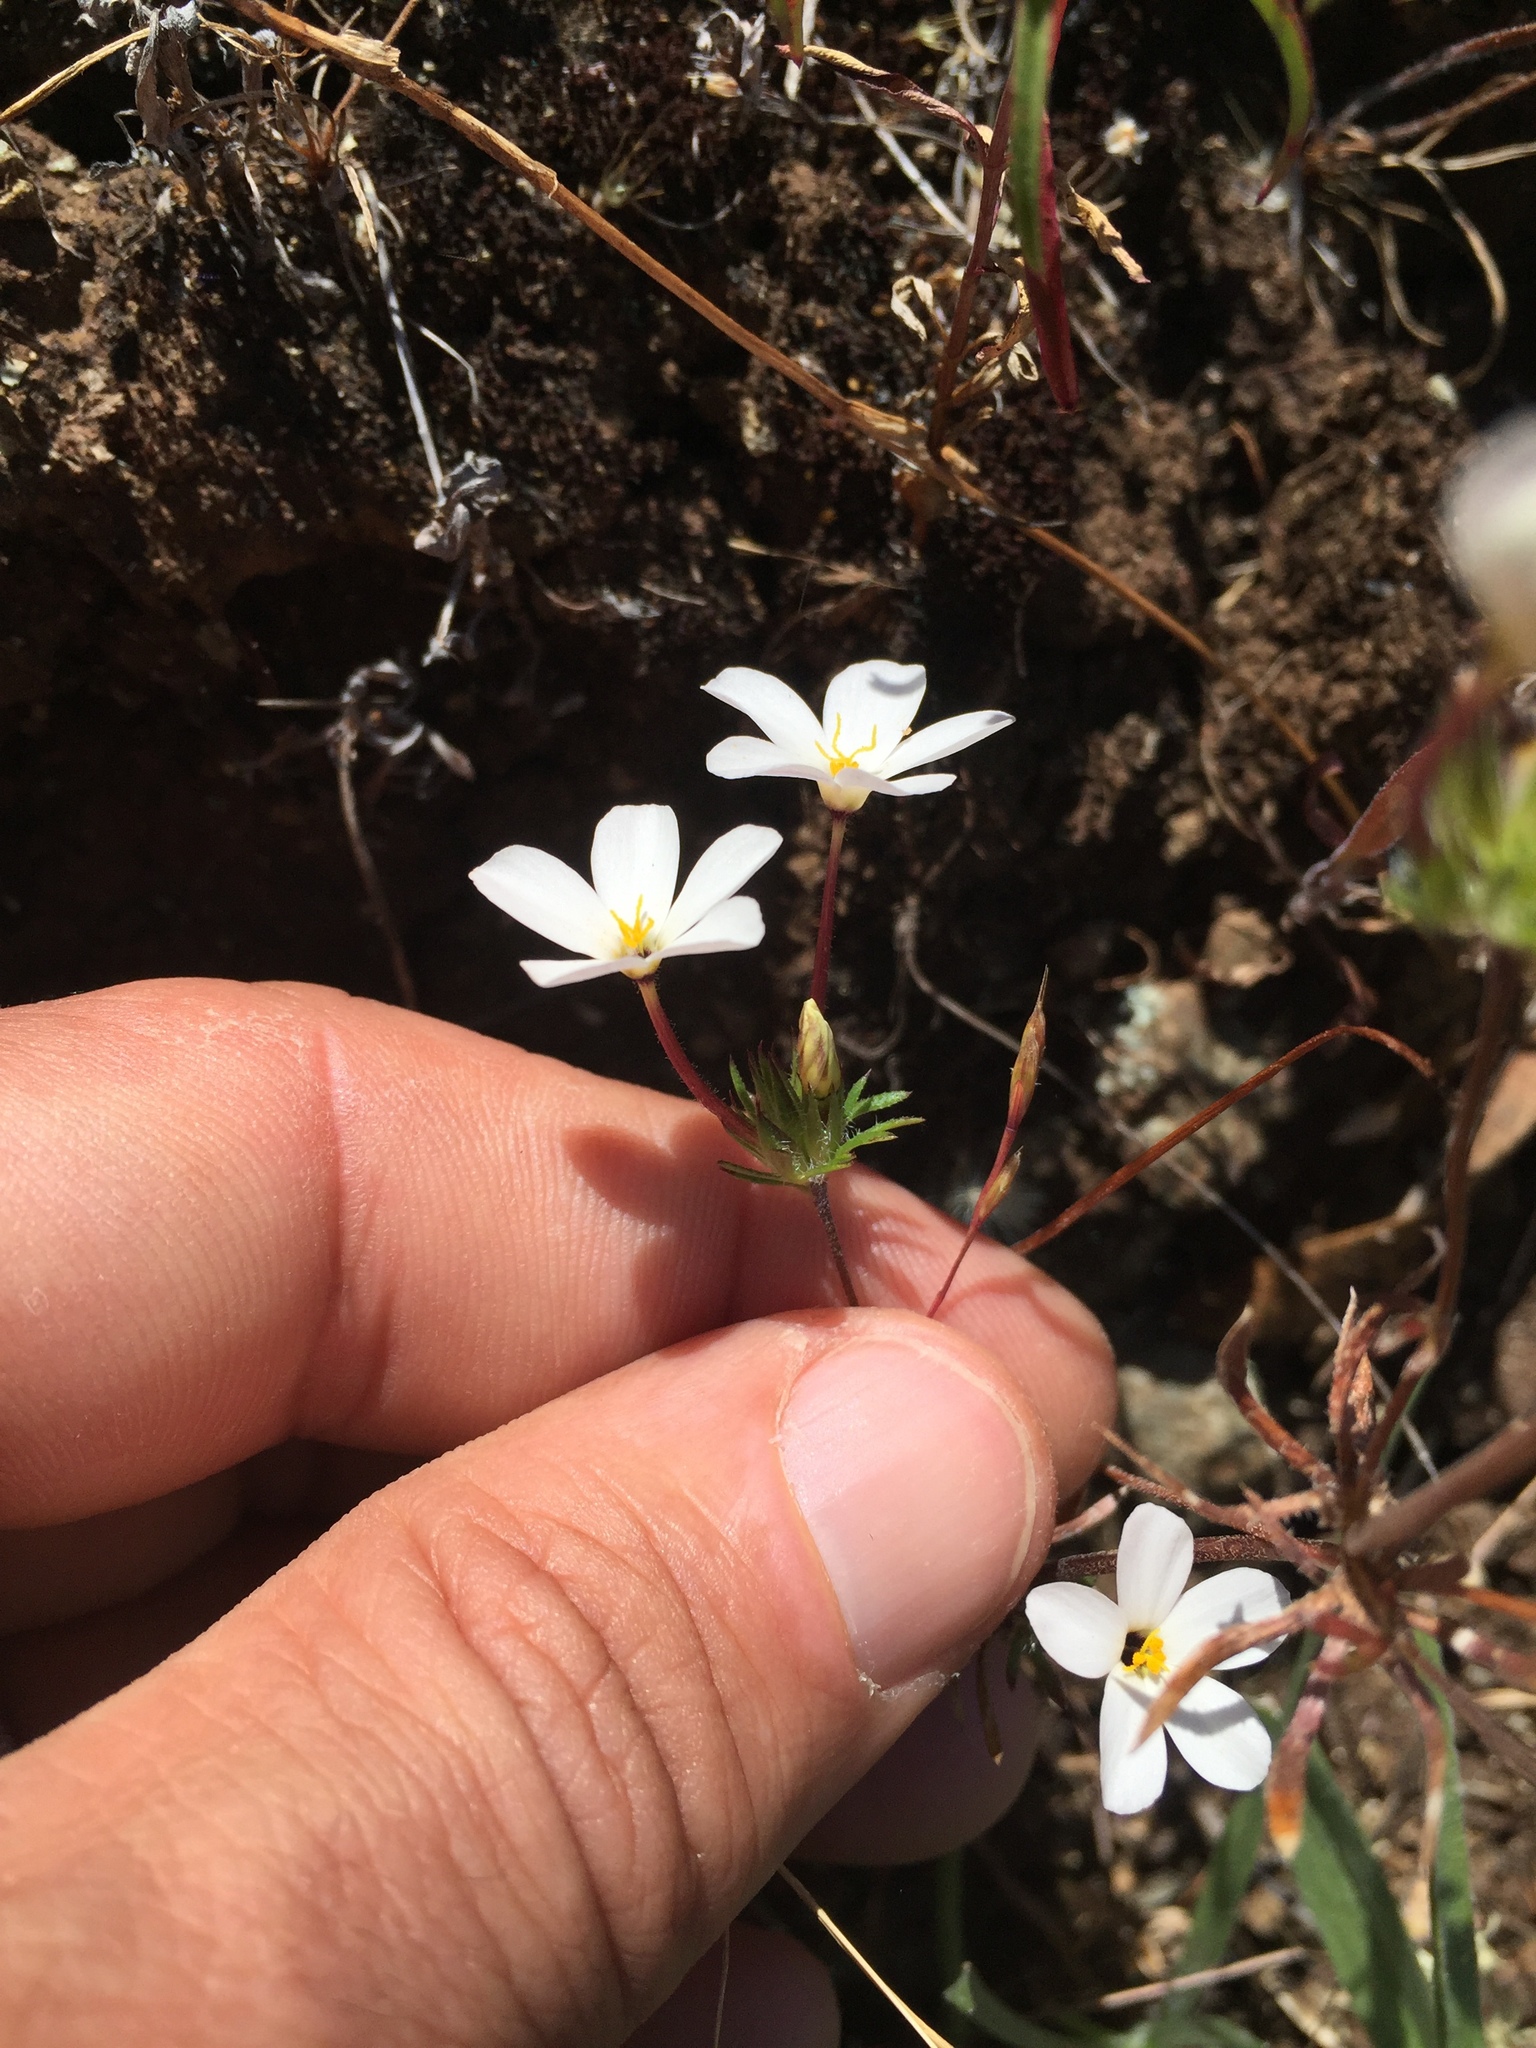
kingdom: Plantae
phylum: Tracheophyta
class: Magnoliopsida
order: Ericales
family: Polemoniaceae
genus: Leptosiphon
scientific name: Leptosiphon androsaceus
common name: False babystars
